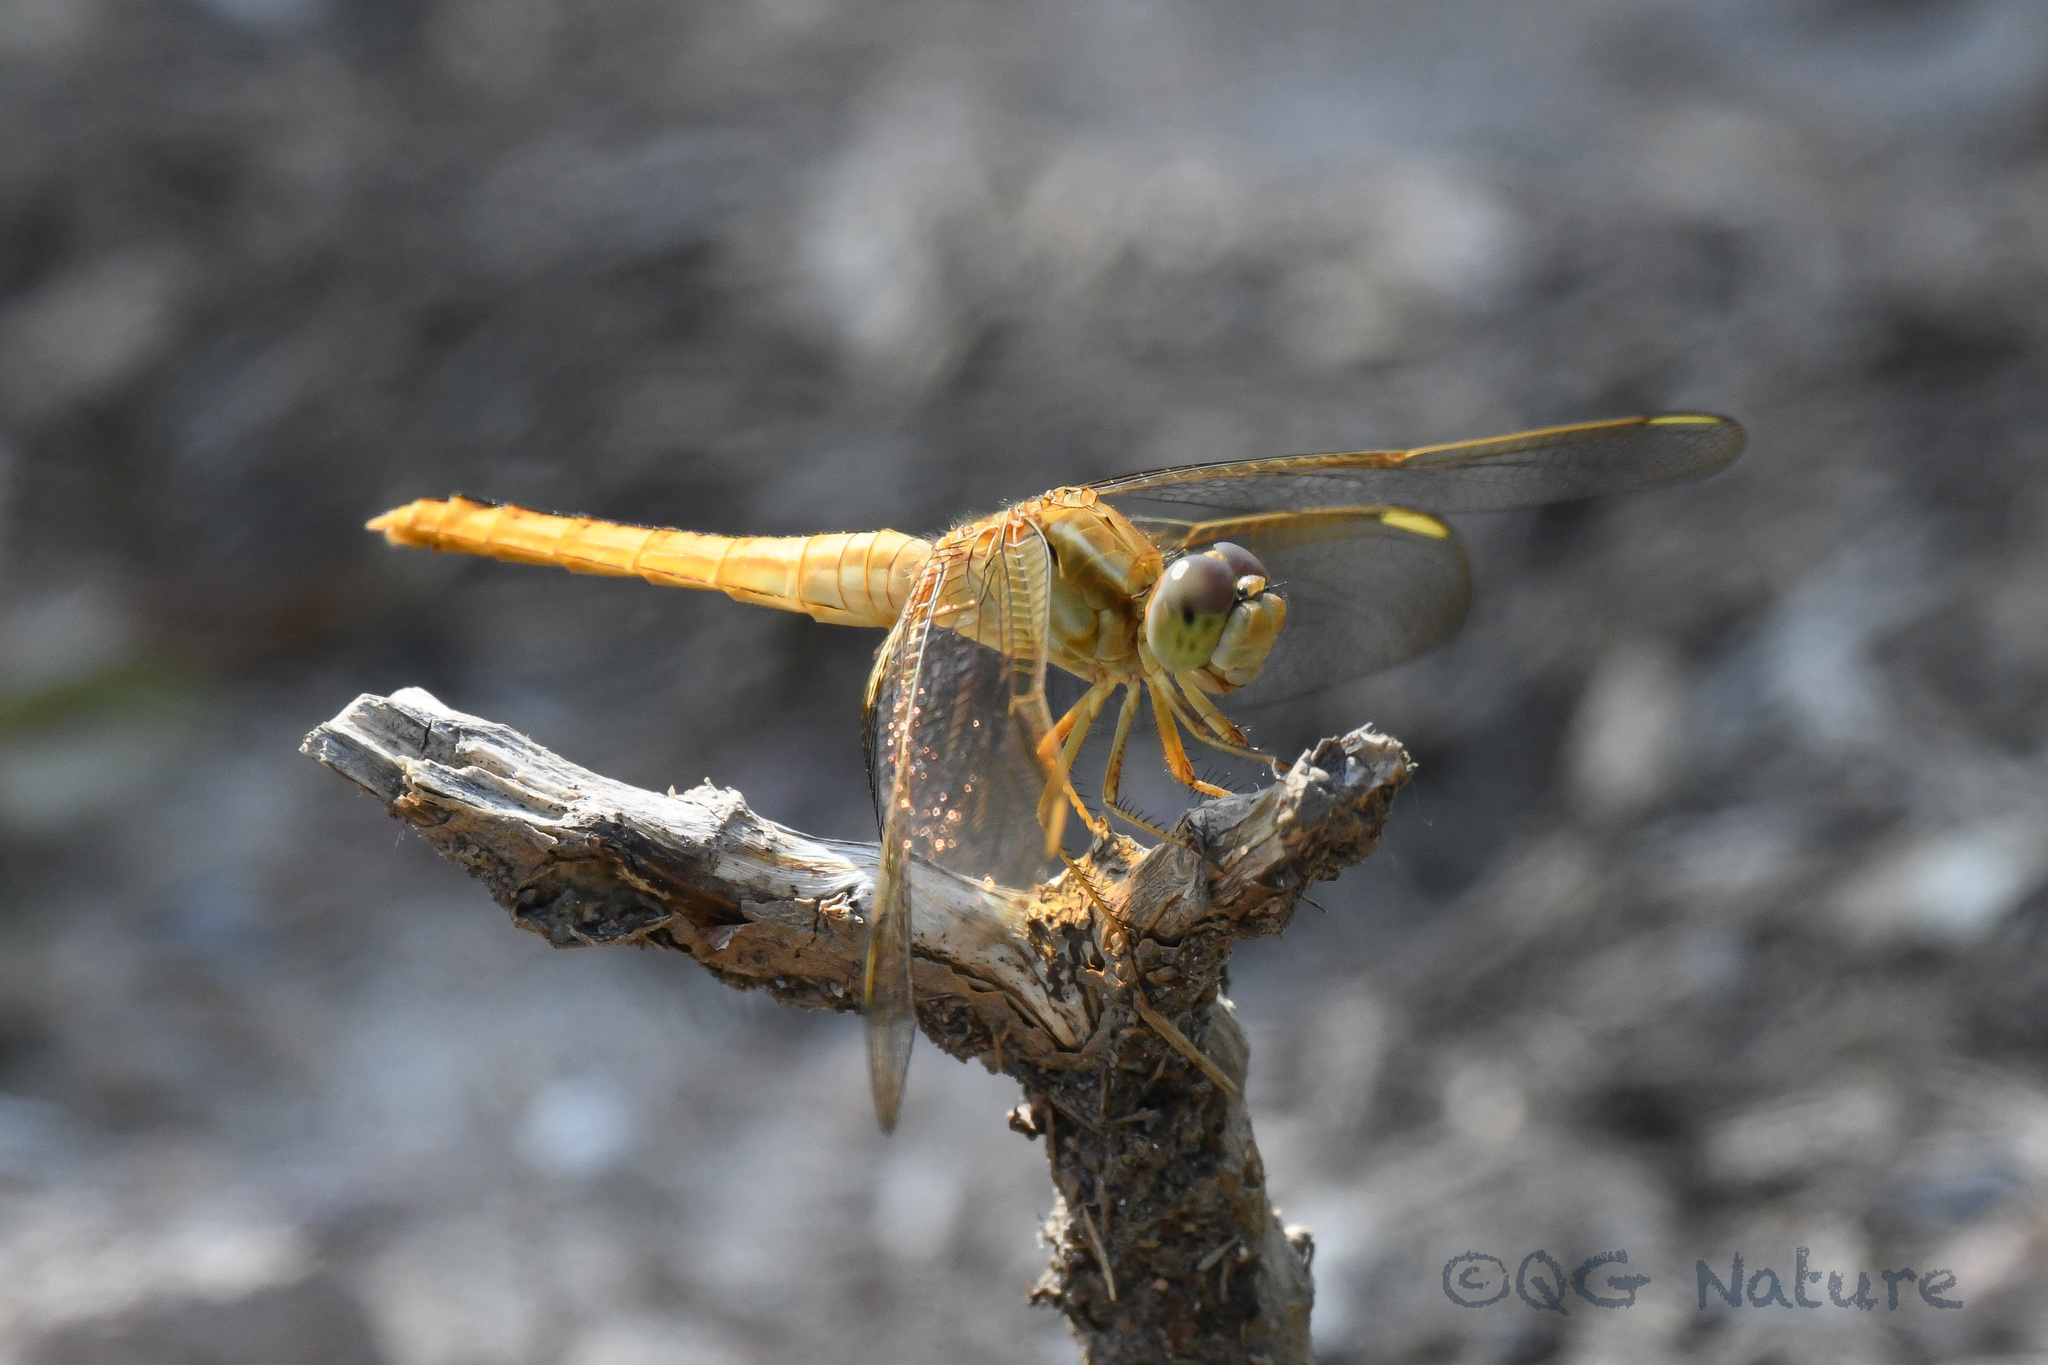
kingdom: Animalia
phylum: Arthropoda
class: Insecta
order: Odonata
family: Libellulidae
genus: Crocothemis
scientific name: Crocothemis servilia
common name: Scarlet skimmer
